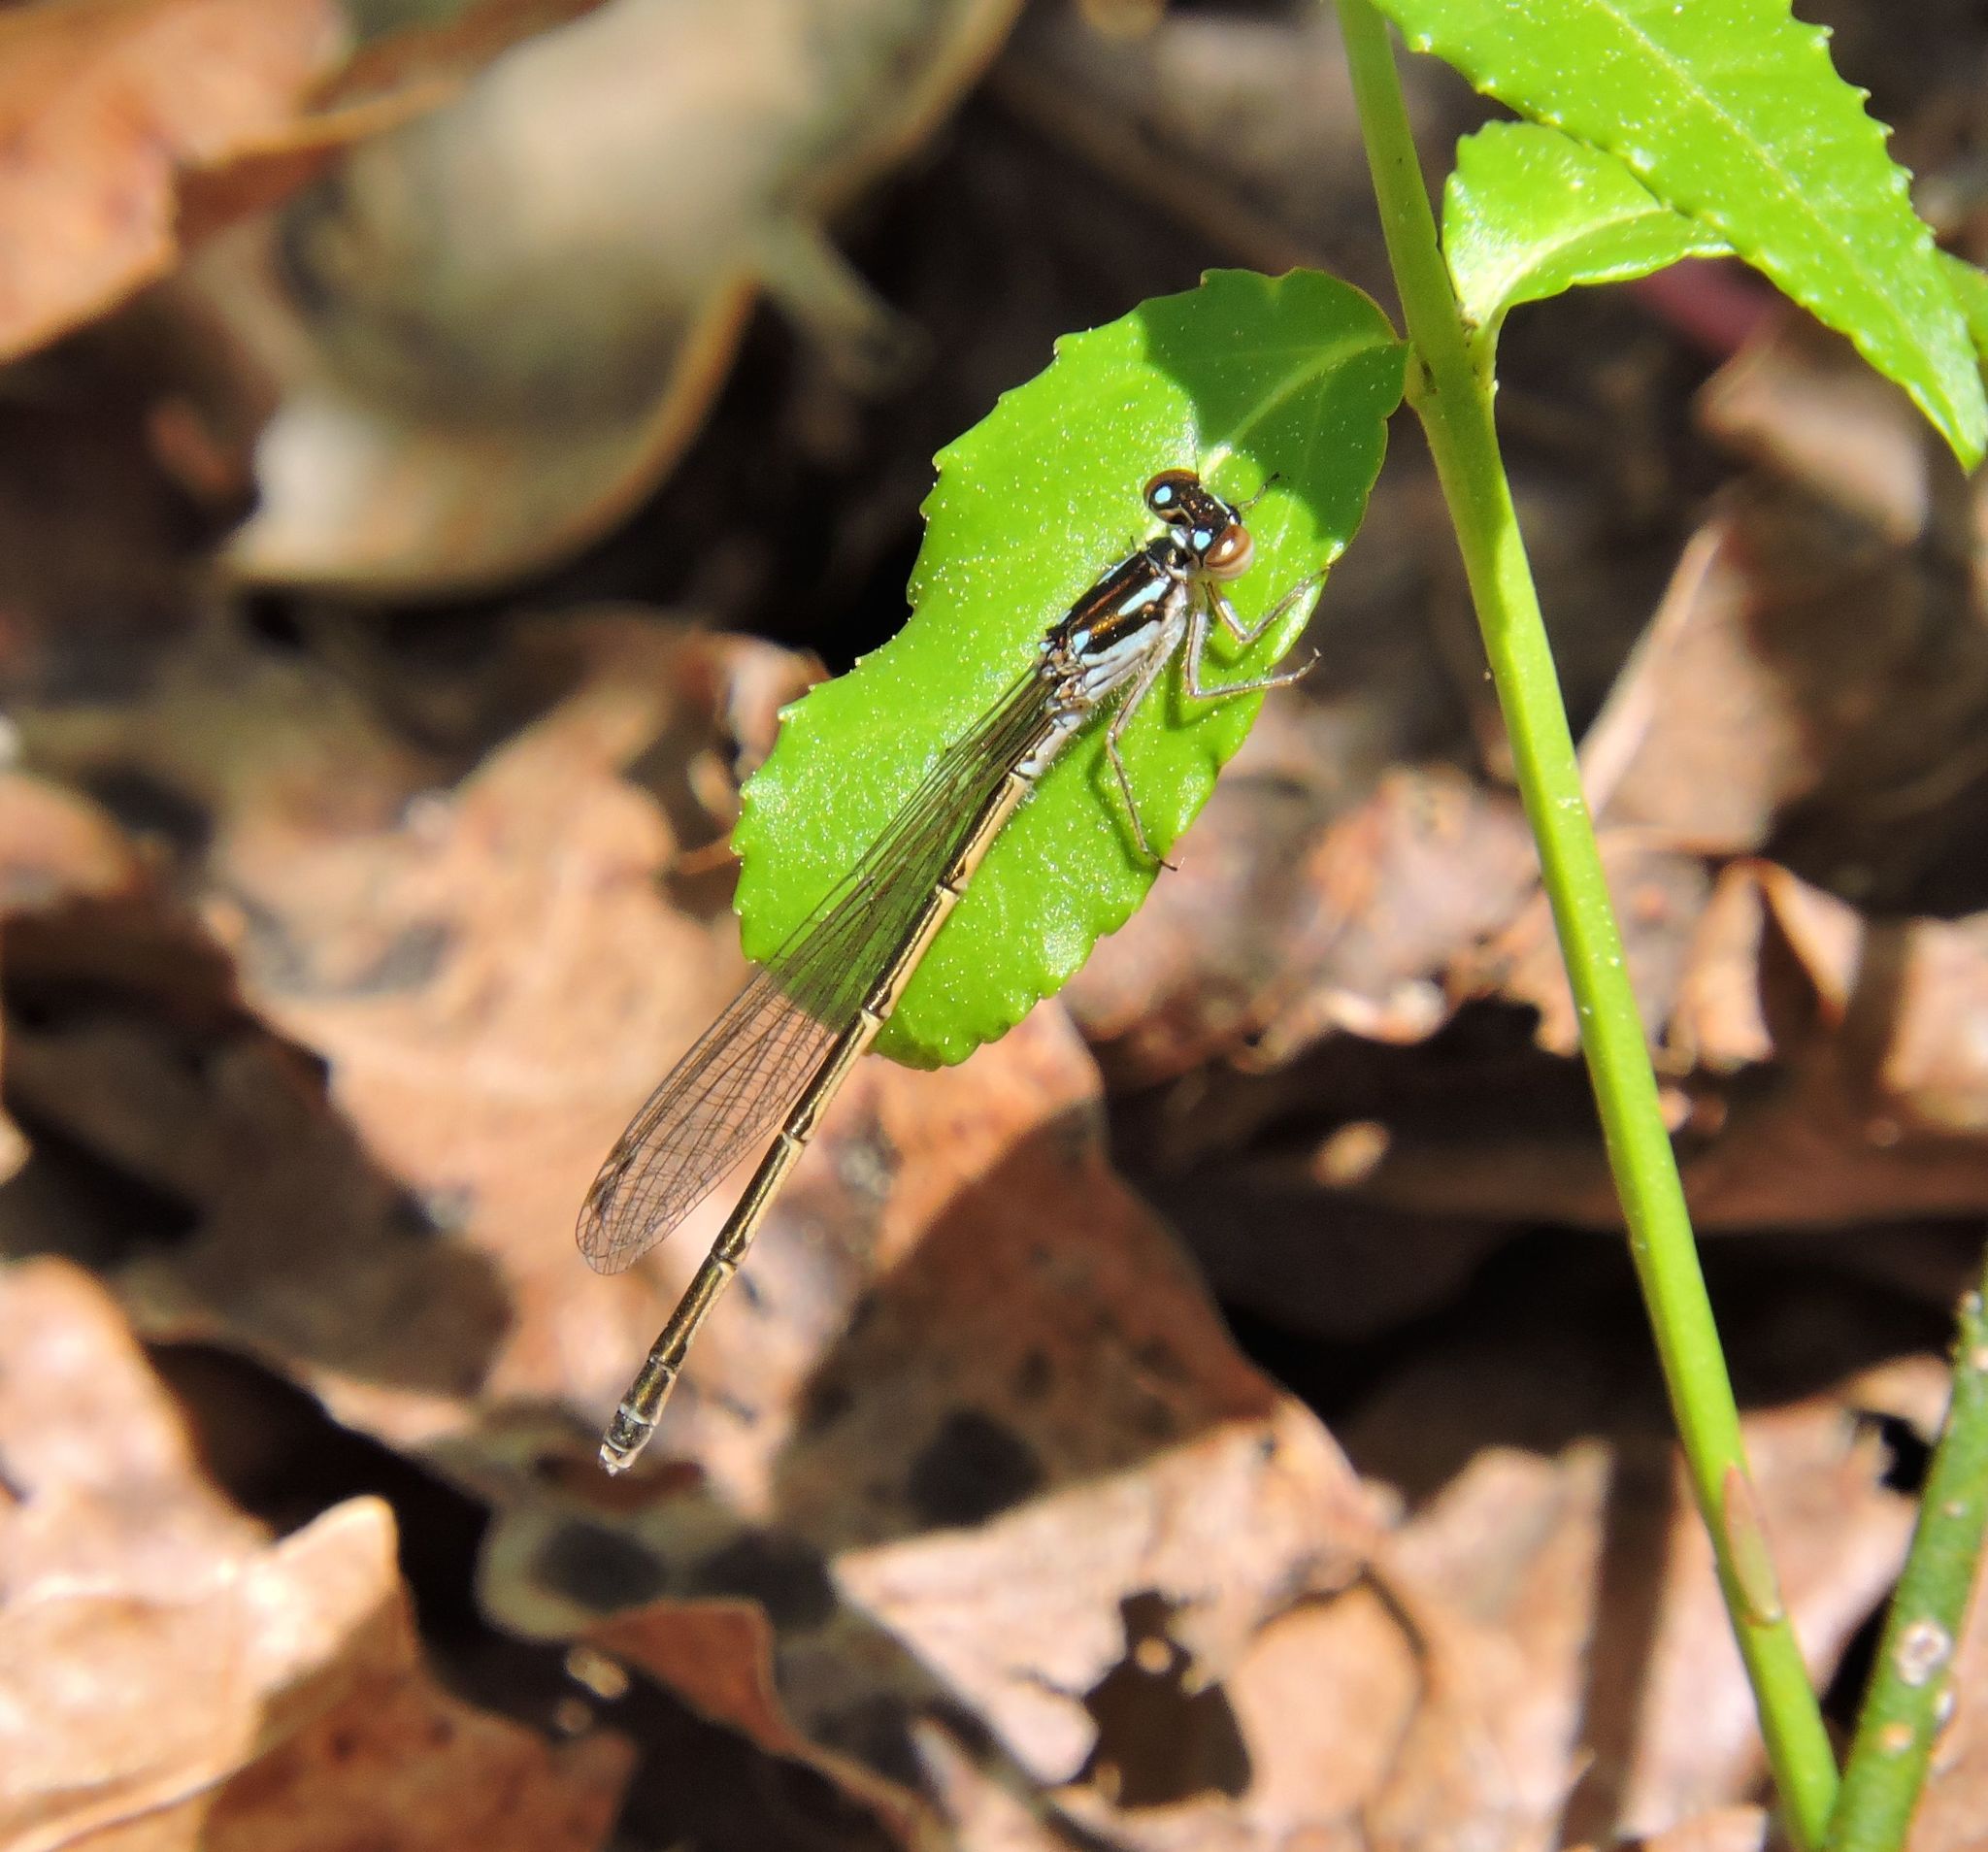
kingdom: Animalia
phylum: Arthropoda
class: Insecta
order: Odonata
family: Coenagrionidae
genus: Ischnura
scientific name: Ischnura posita
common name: Fragile forktail
